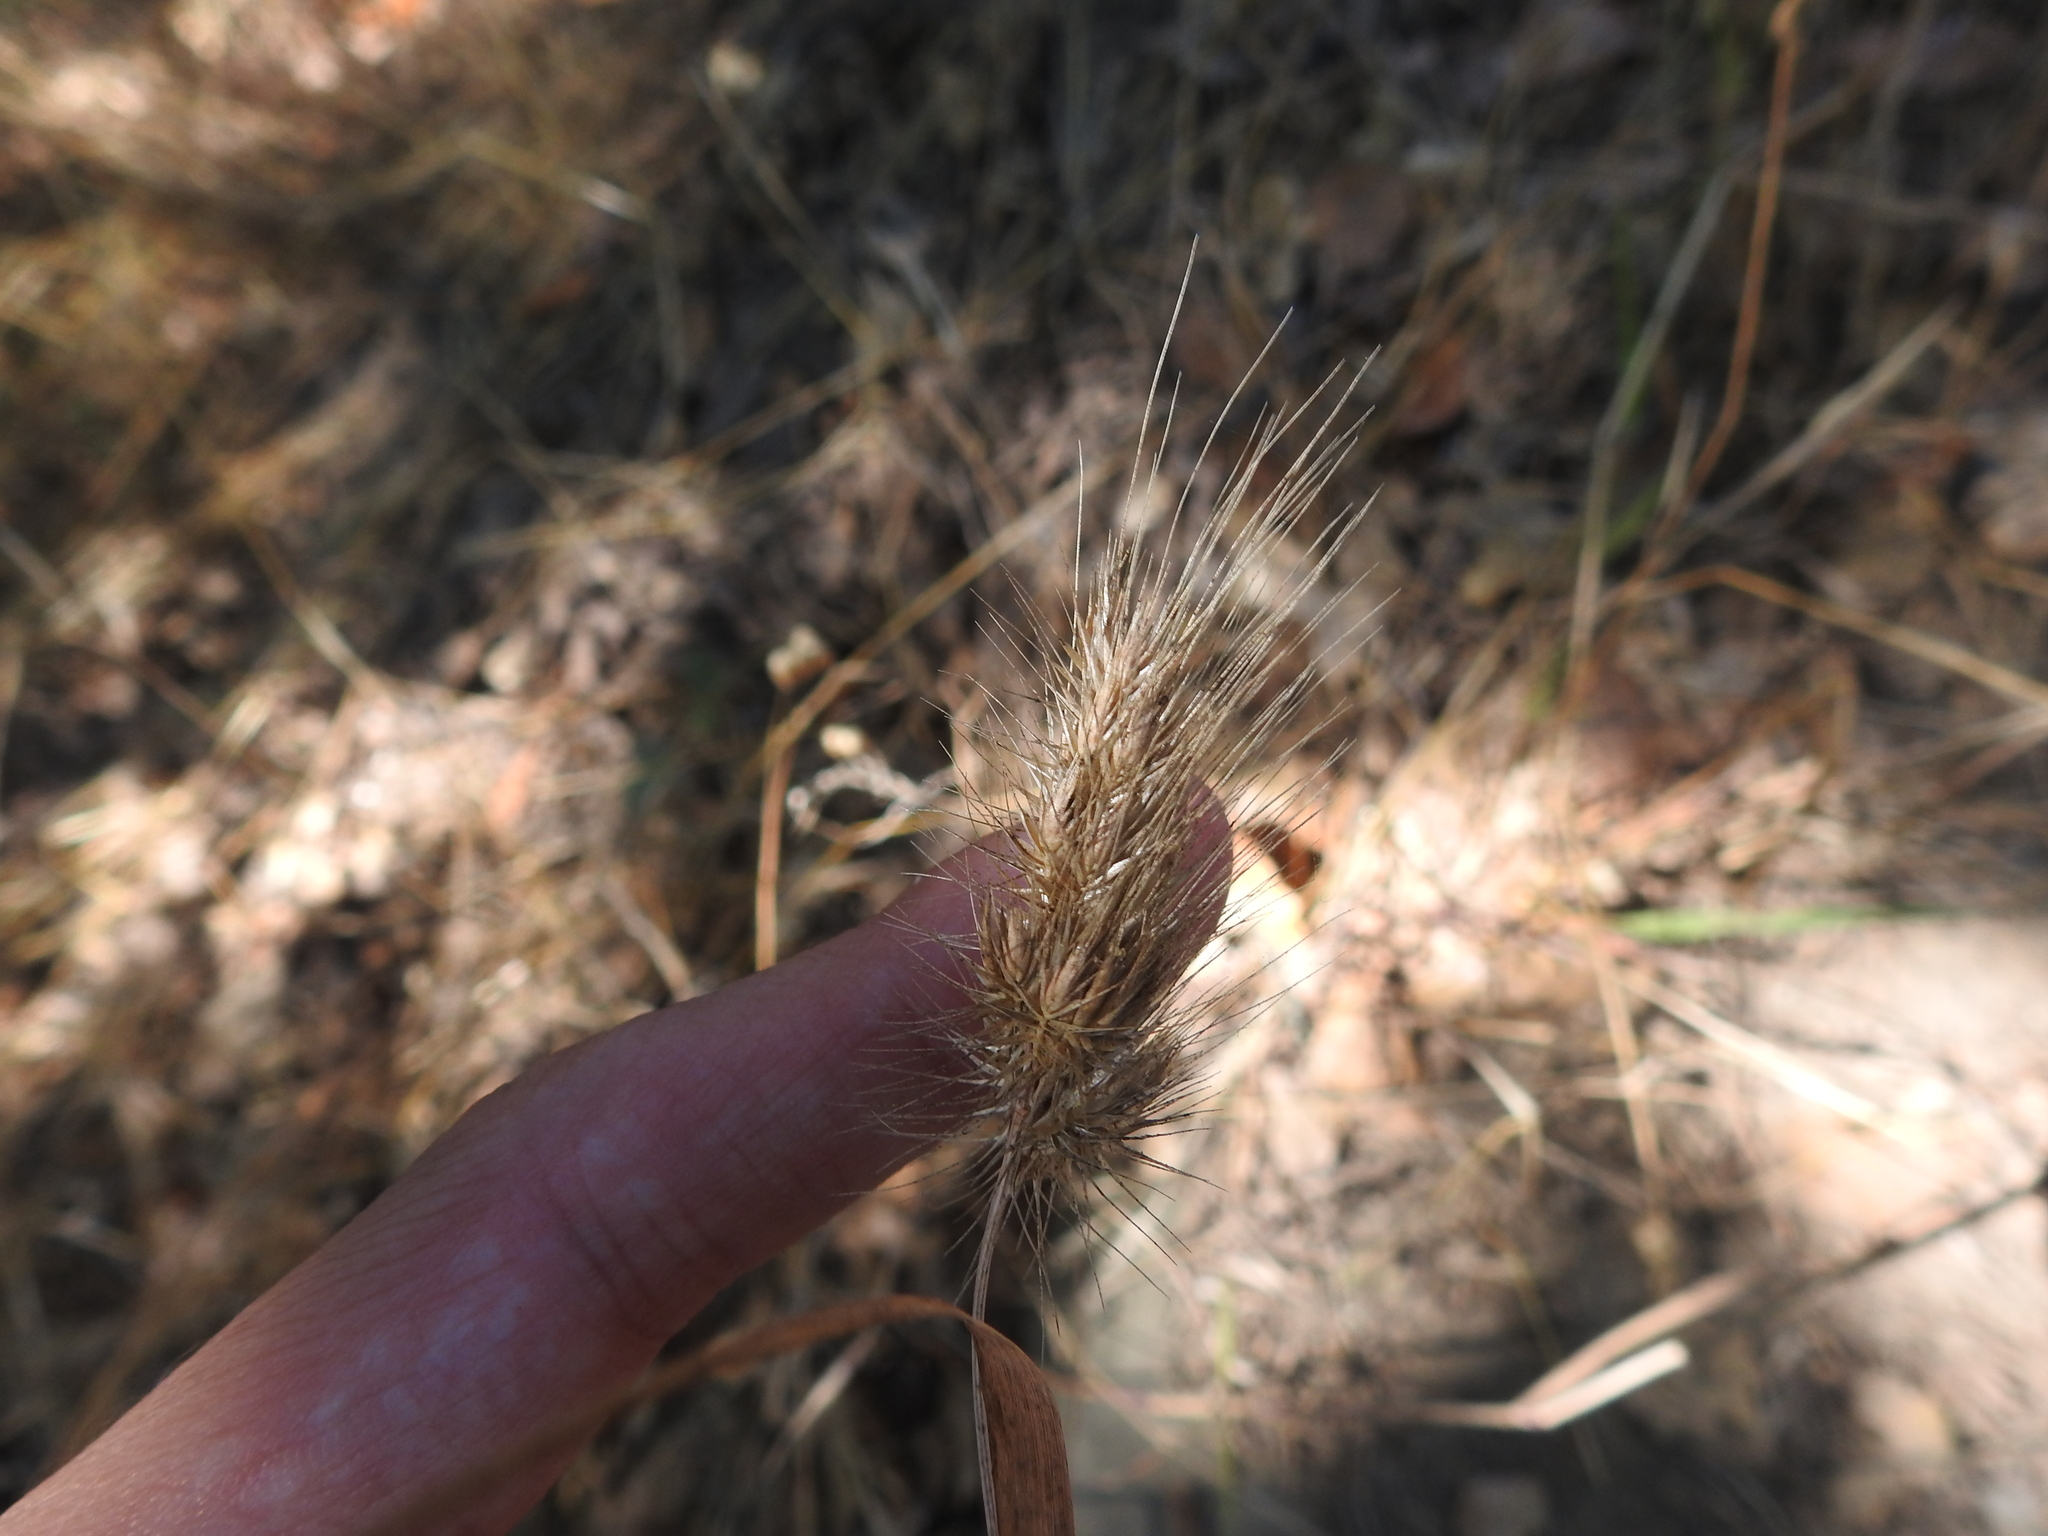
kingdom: Plantae
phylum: Tracheophyta
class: Liliopsida
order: Poales
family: Poaceae
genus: Cynosurus
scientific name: Cynosurus echinatus
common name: Rough dog's-tail
